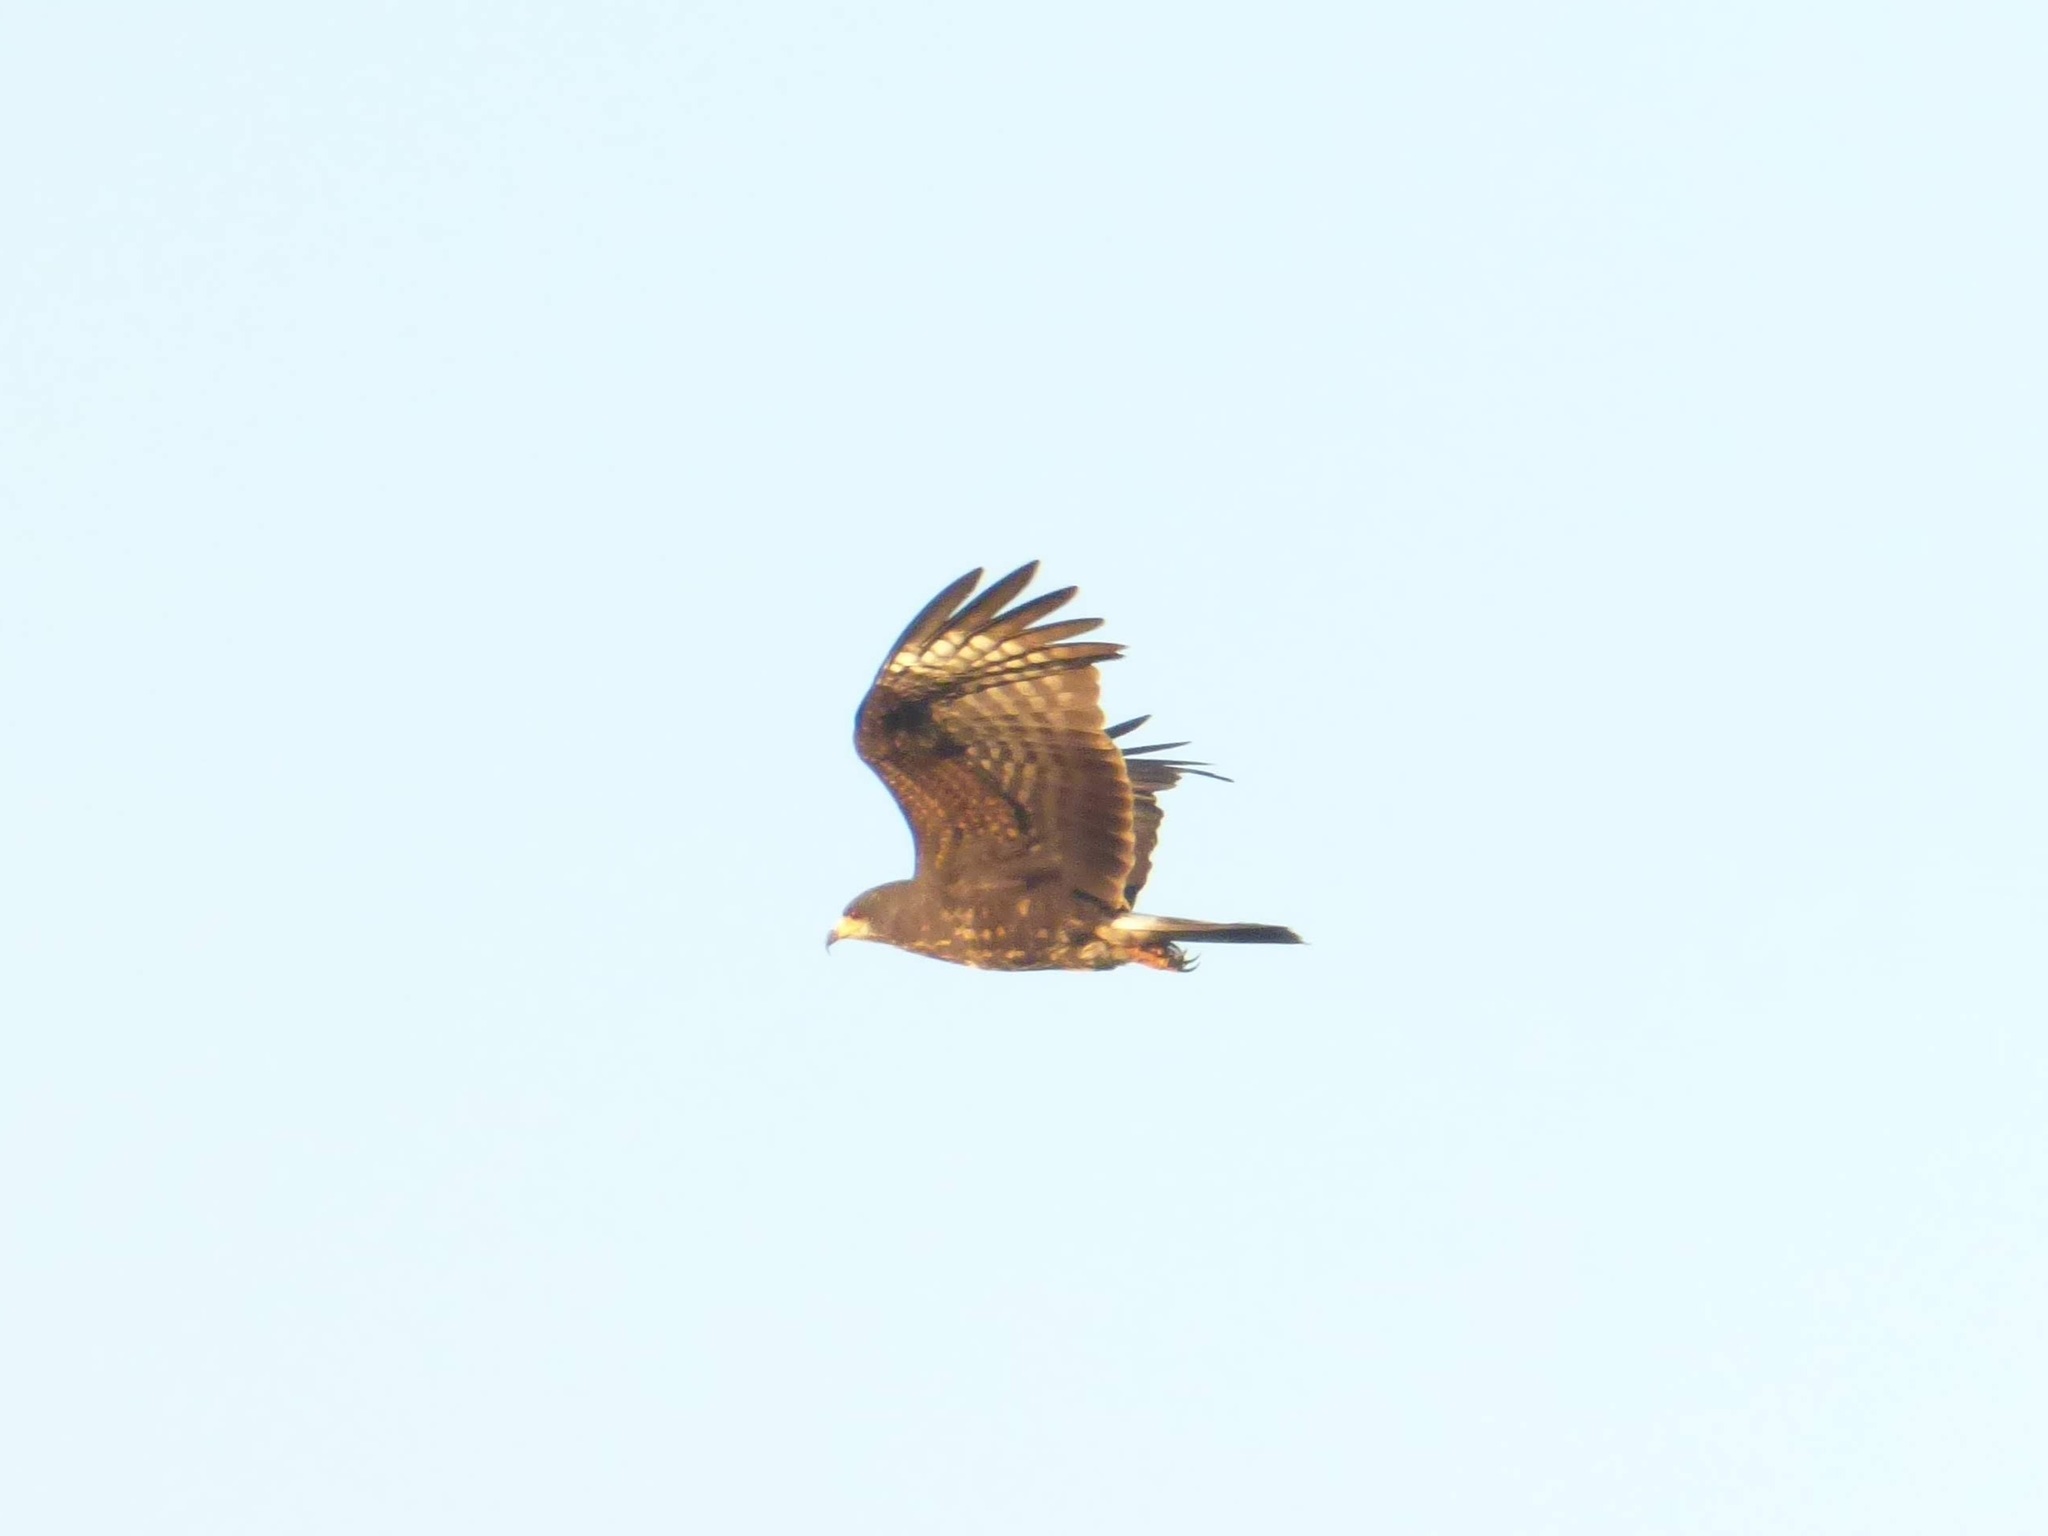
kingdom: Animalia
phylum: Chordata
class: Aves
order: Accipitriformes
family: Accipitridae
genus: Rostrhamus
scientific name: Rostrhamus sociabilis
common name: Snail kite
